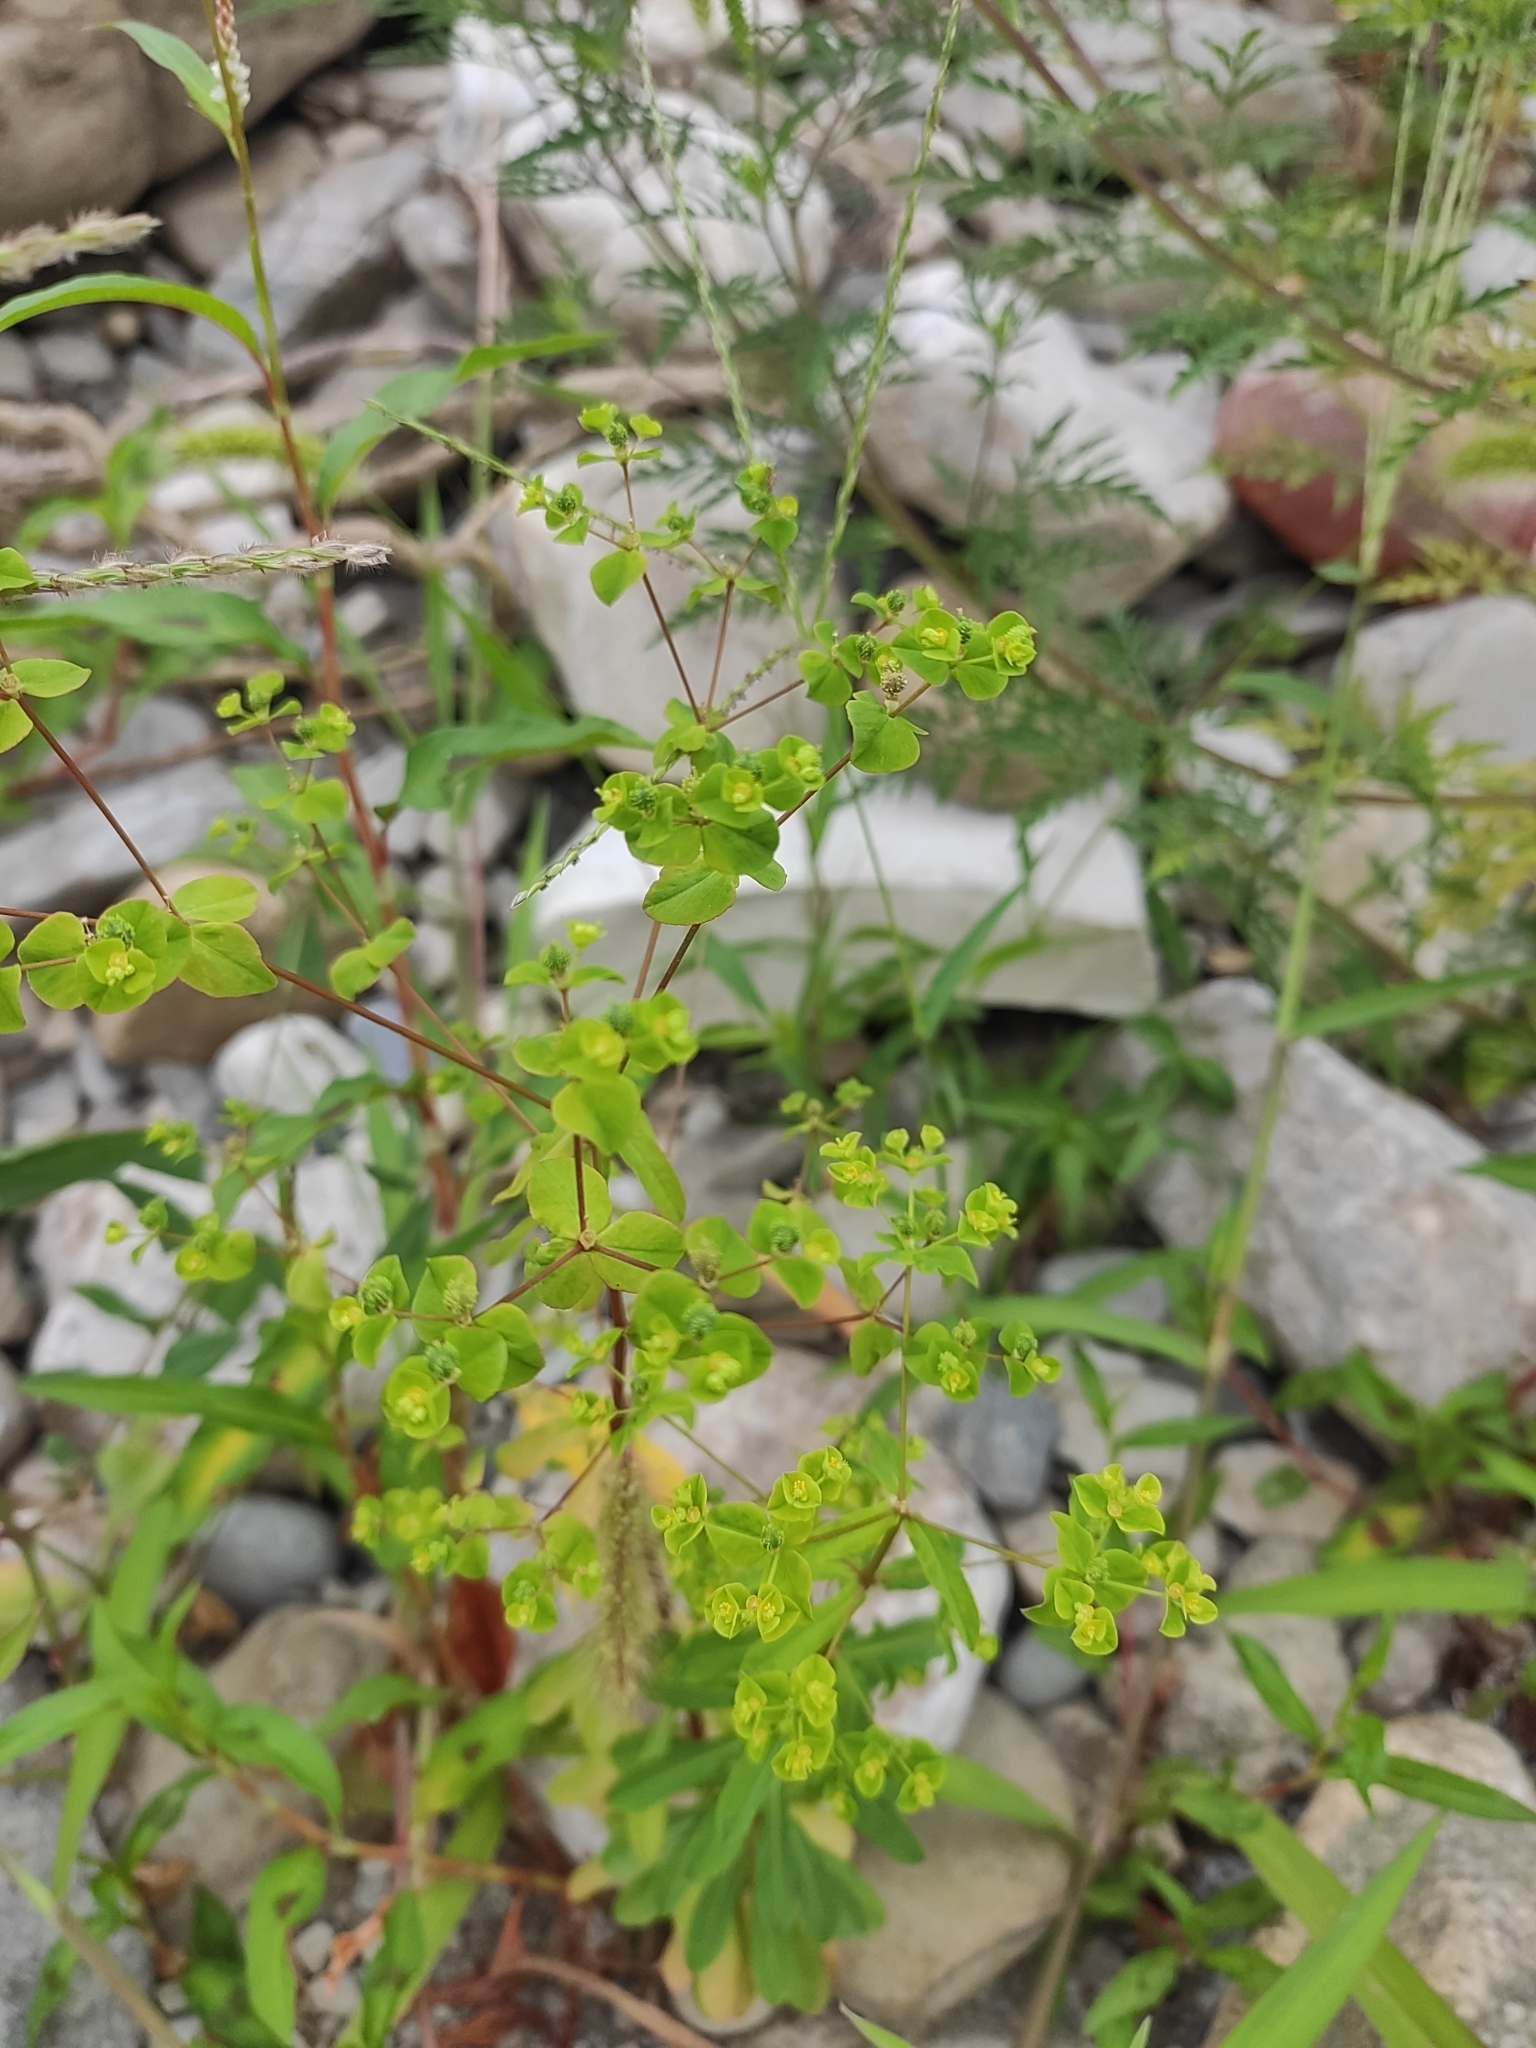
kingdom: Plantae
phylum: Tracheophyta
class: Magnoliopsida
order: Malpighiales
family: Euphorbiaceae
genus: Euphorbia
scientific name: Euphorbia stricta
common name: Upright spurge
